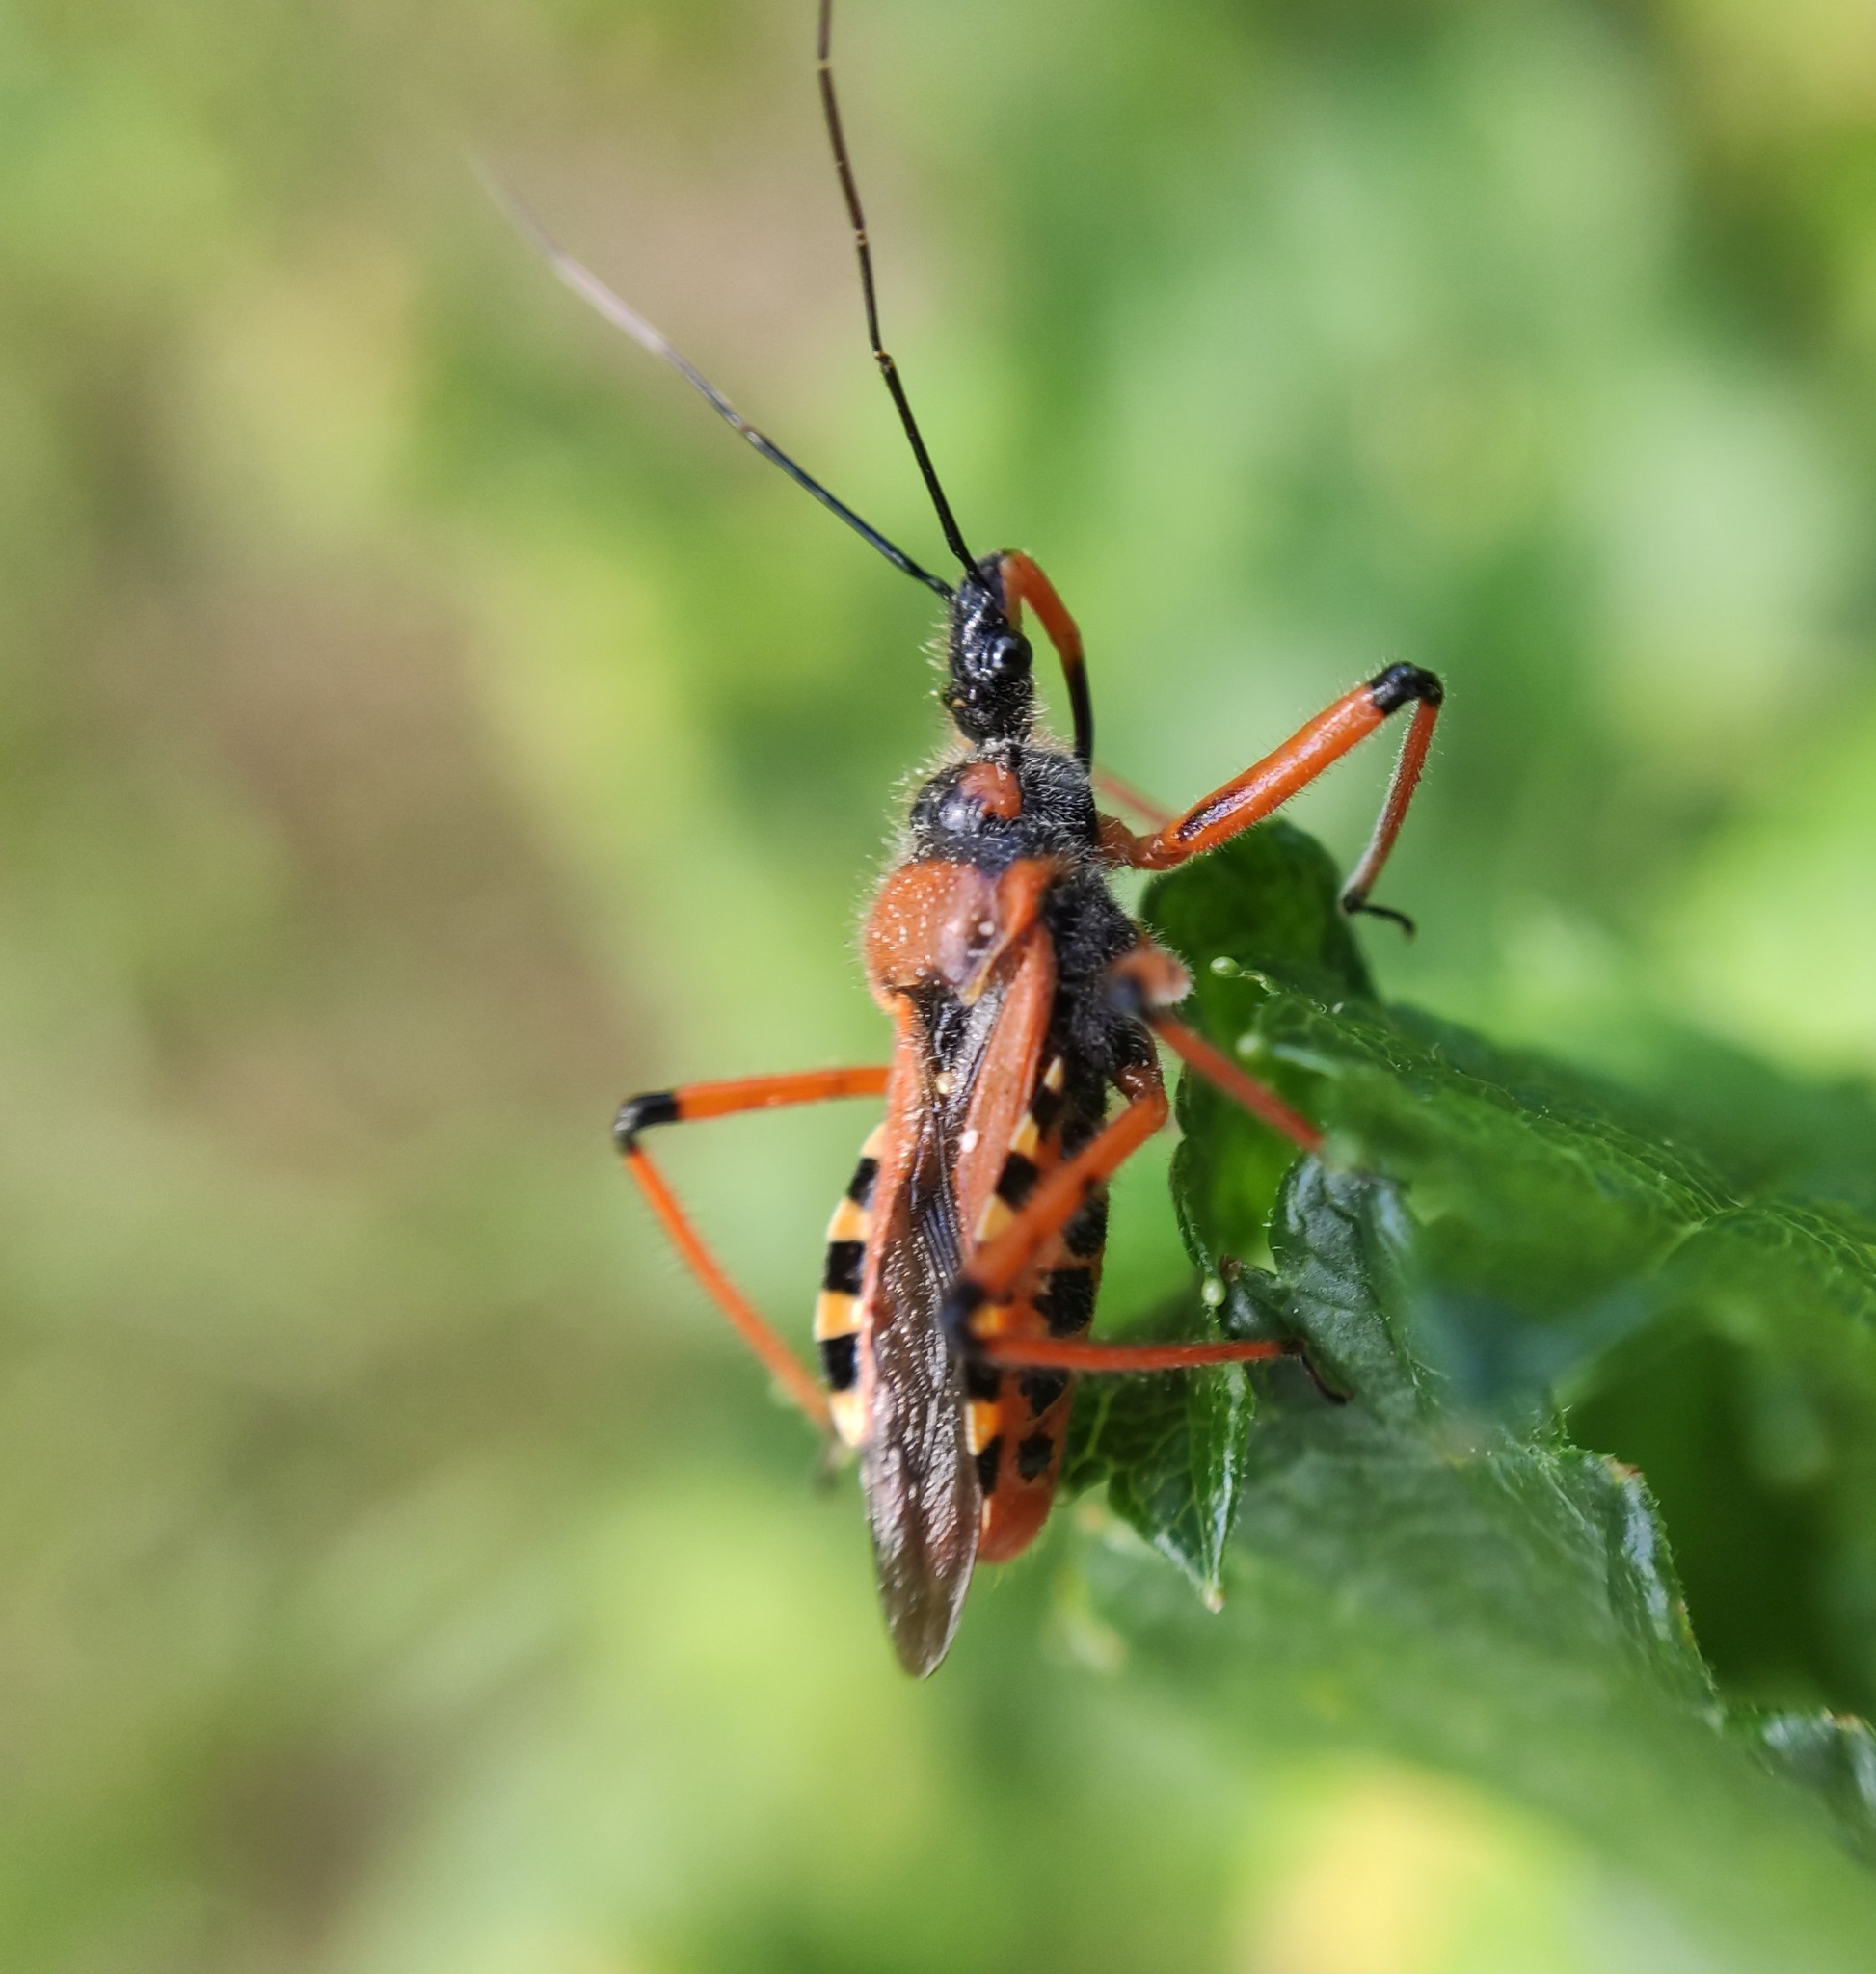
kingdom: Animalia
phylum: Arthropoda
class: Insecta
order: Hemiptera
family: Reduviidae
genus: Rhynocoris
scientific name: Rhynocoris iracundus
